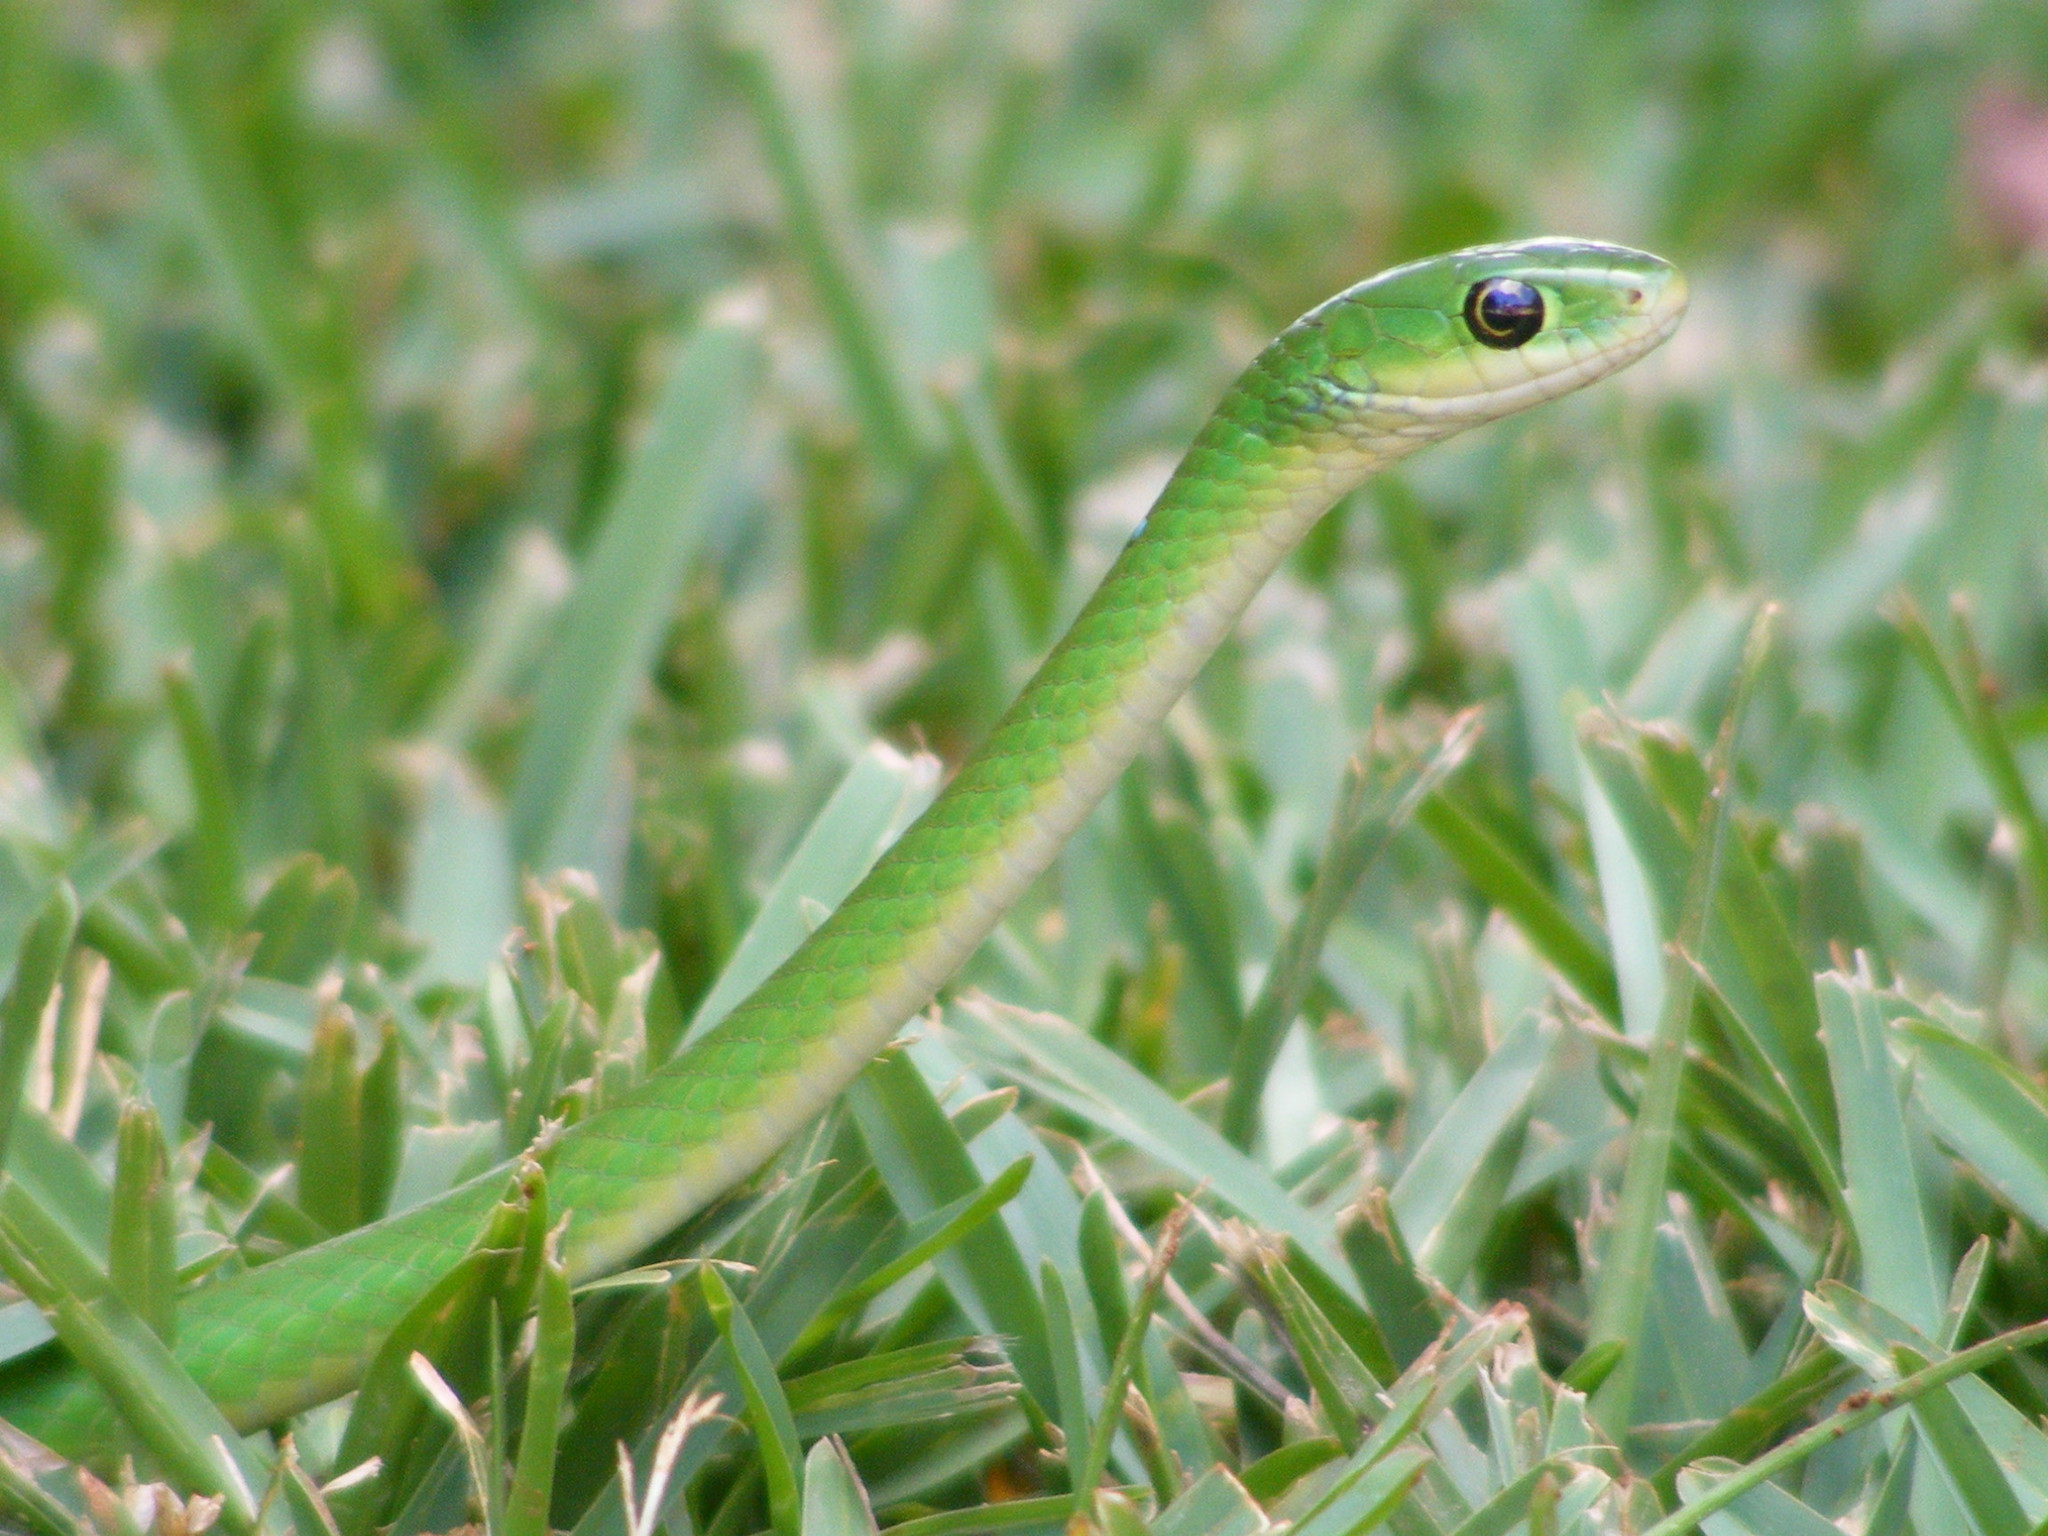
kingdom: Animalia
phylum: Chordata
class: Squamata
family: Colubridae
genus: Philothamnus
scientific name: Philothamnus hoplogaster
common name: Green water snake
